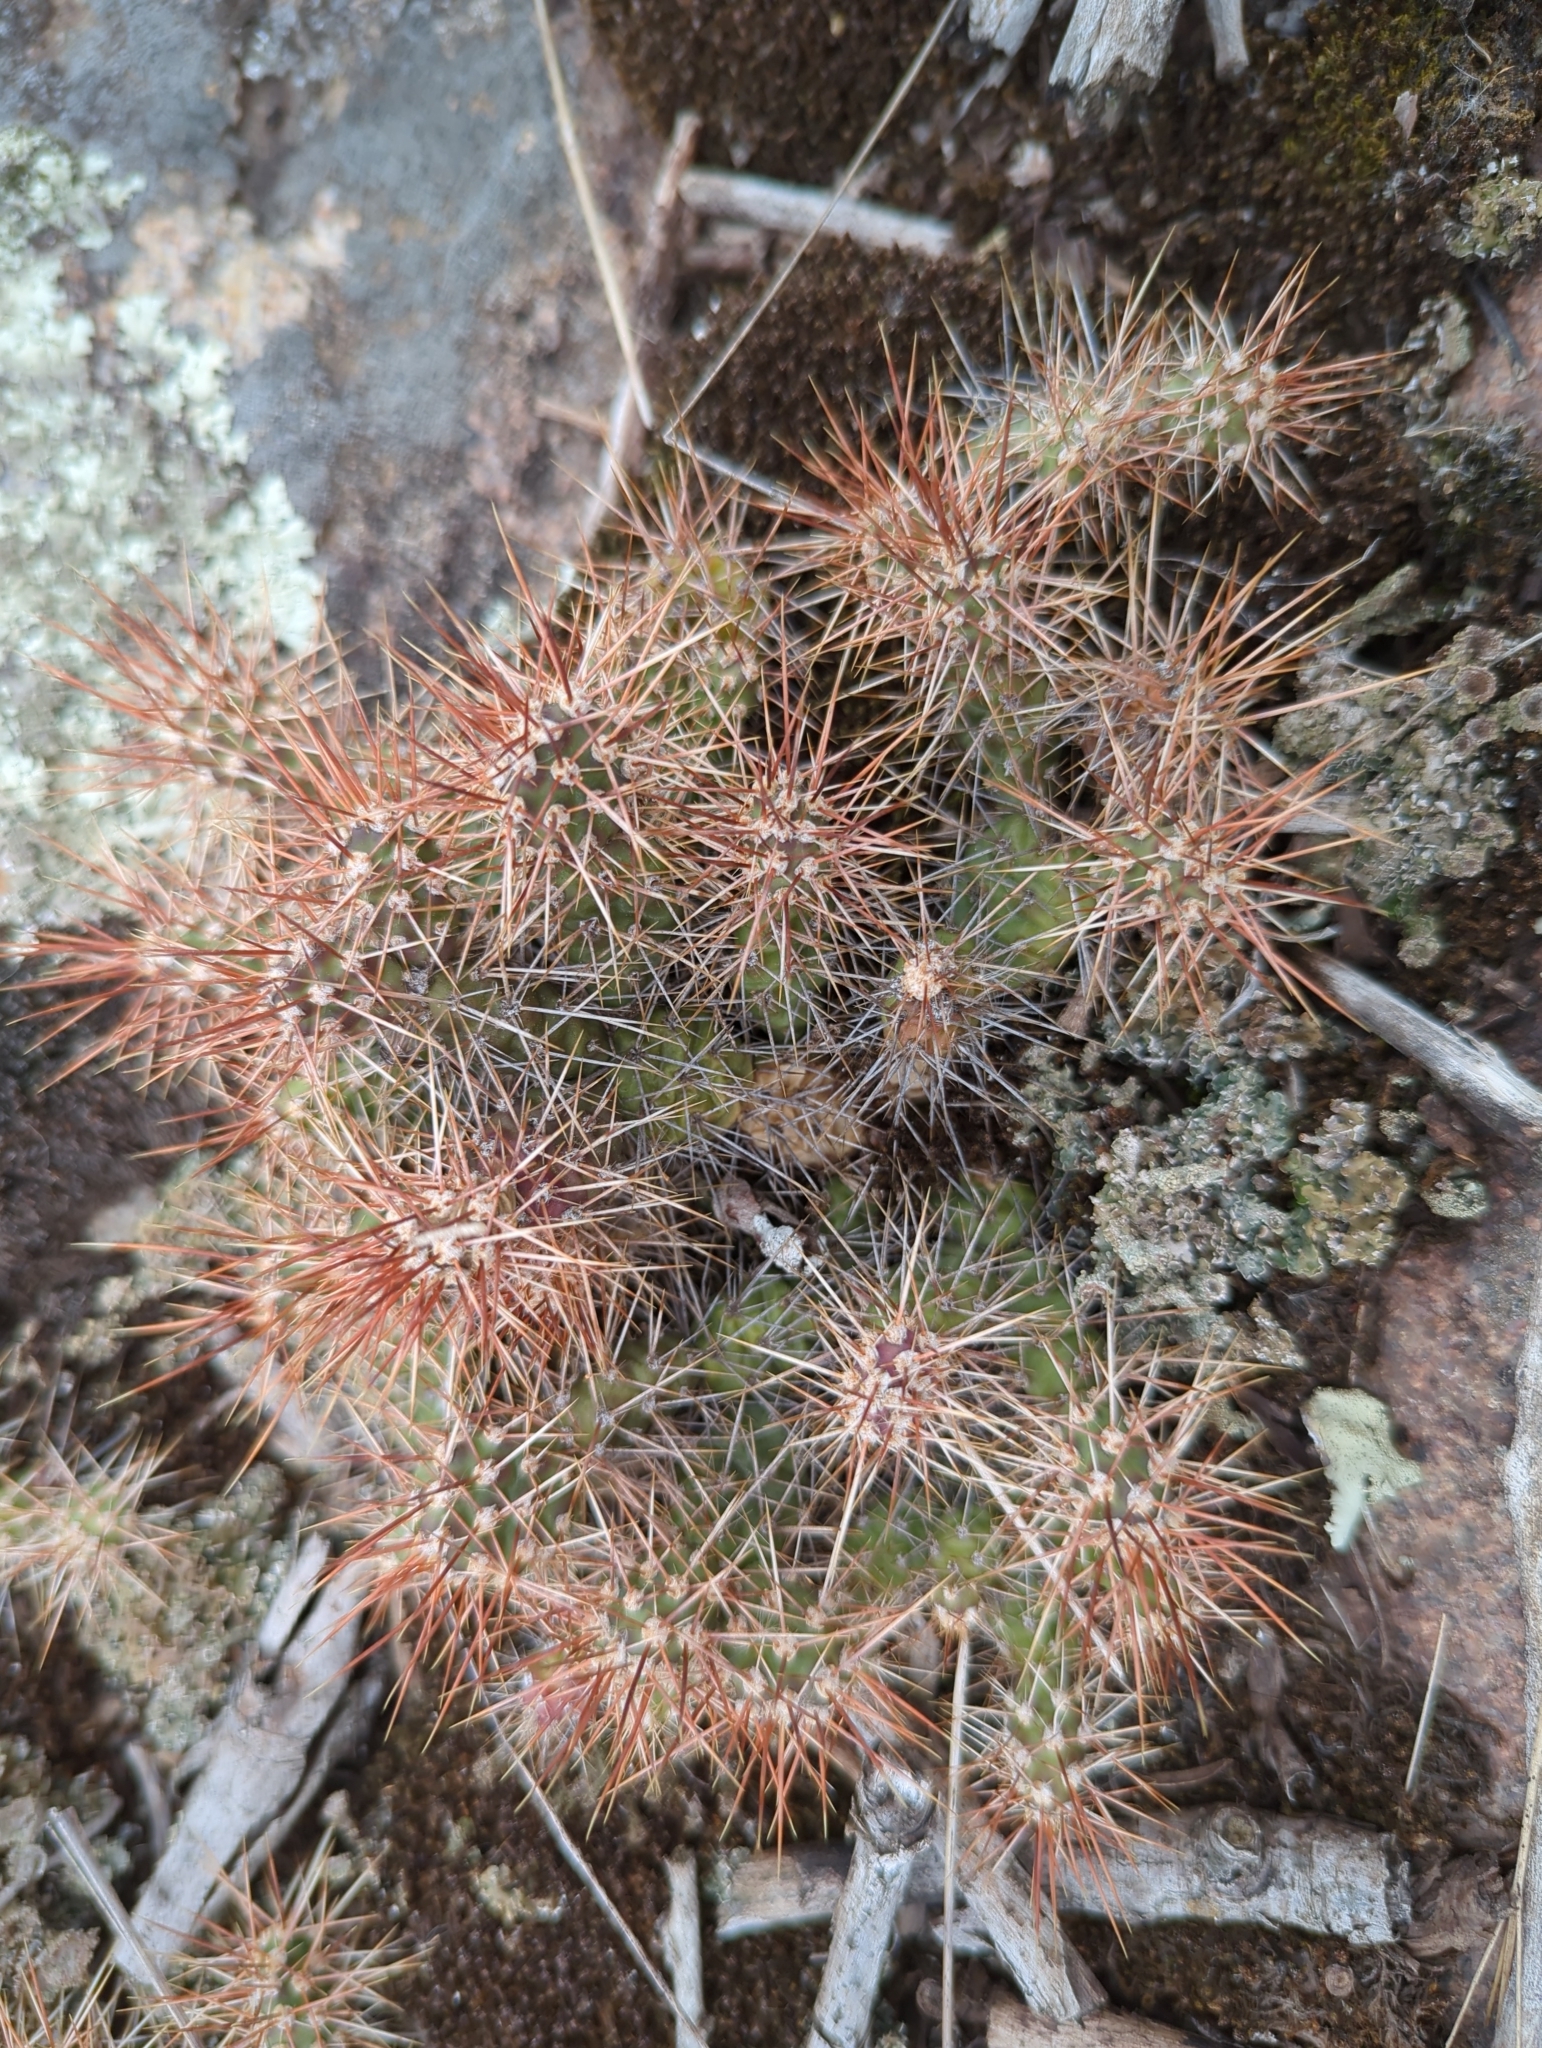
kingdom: Plantae
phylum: Tracheophyta
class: Magnoliopsida
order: Caryophyllales
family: Cactaceae
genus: Opuntia
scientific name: Opuntia fragilis
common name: Brittle cactus
